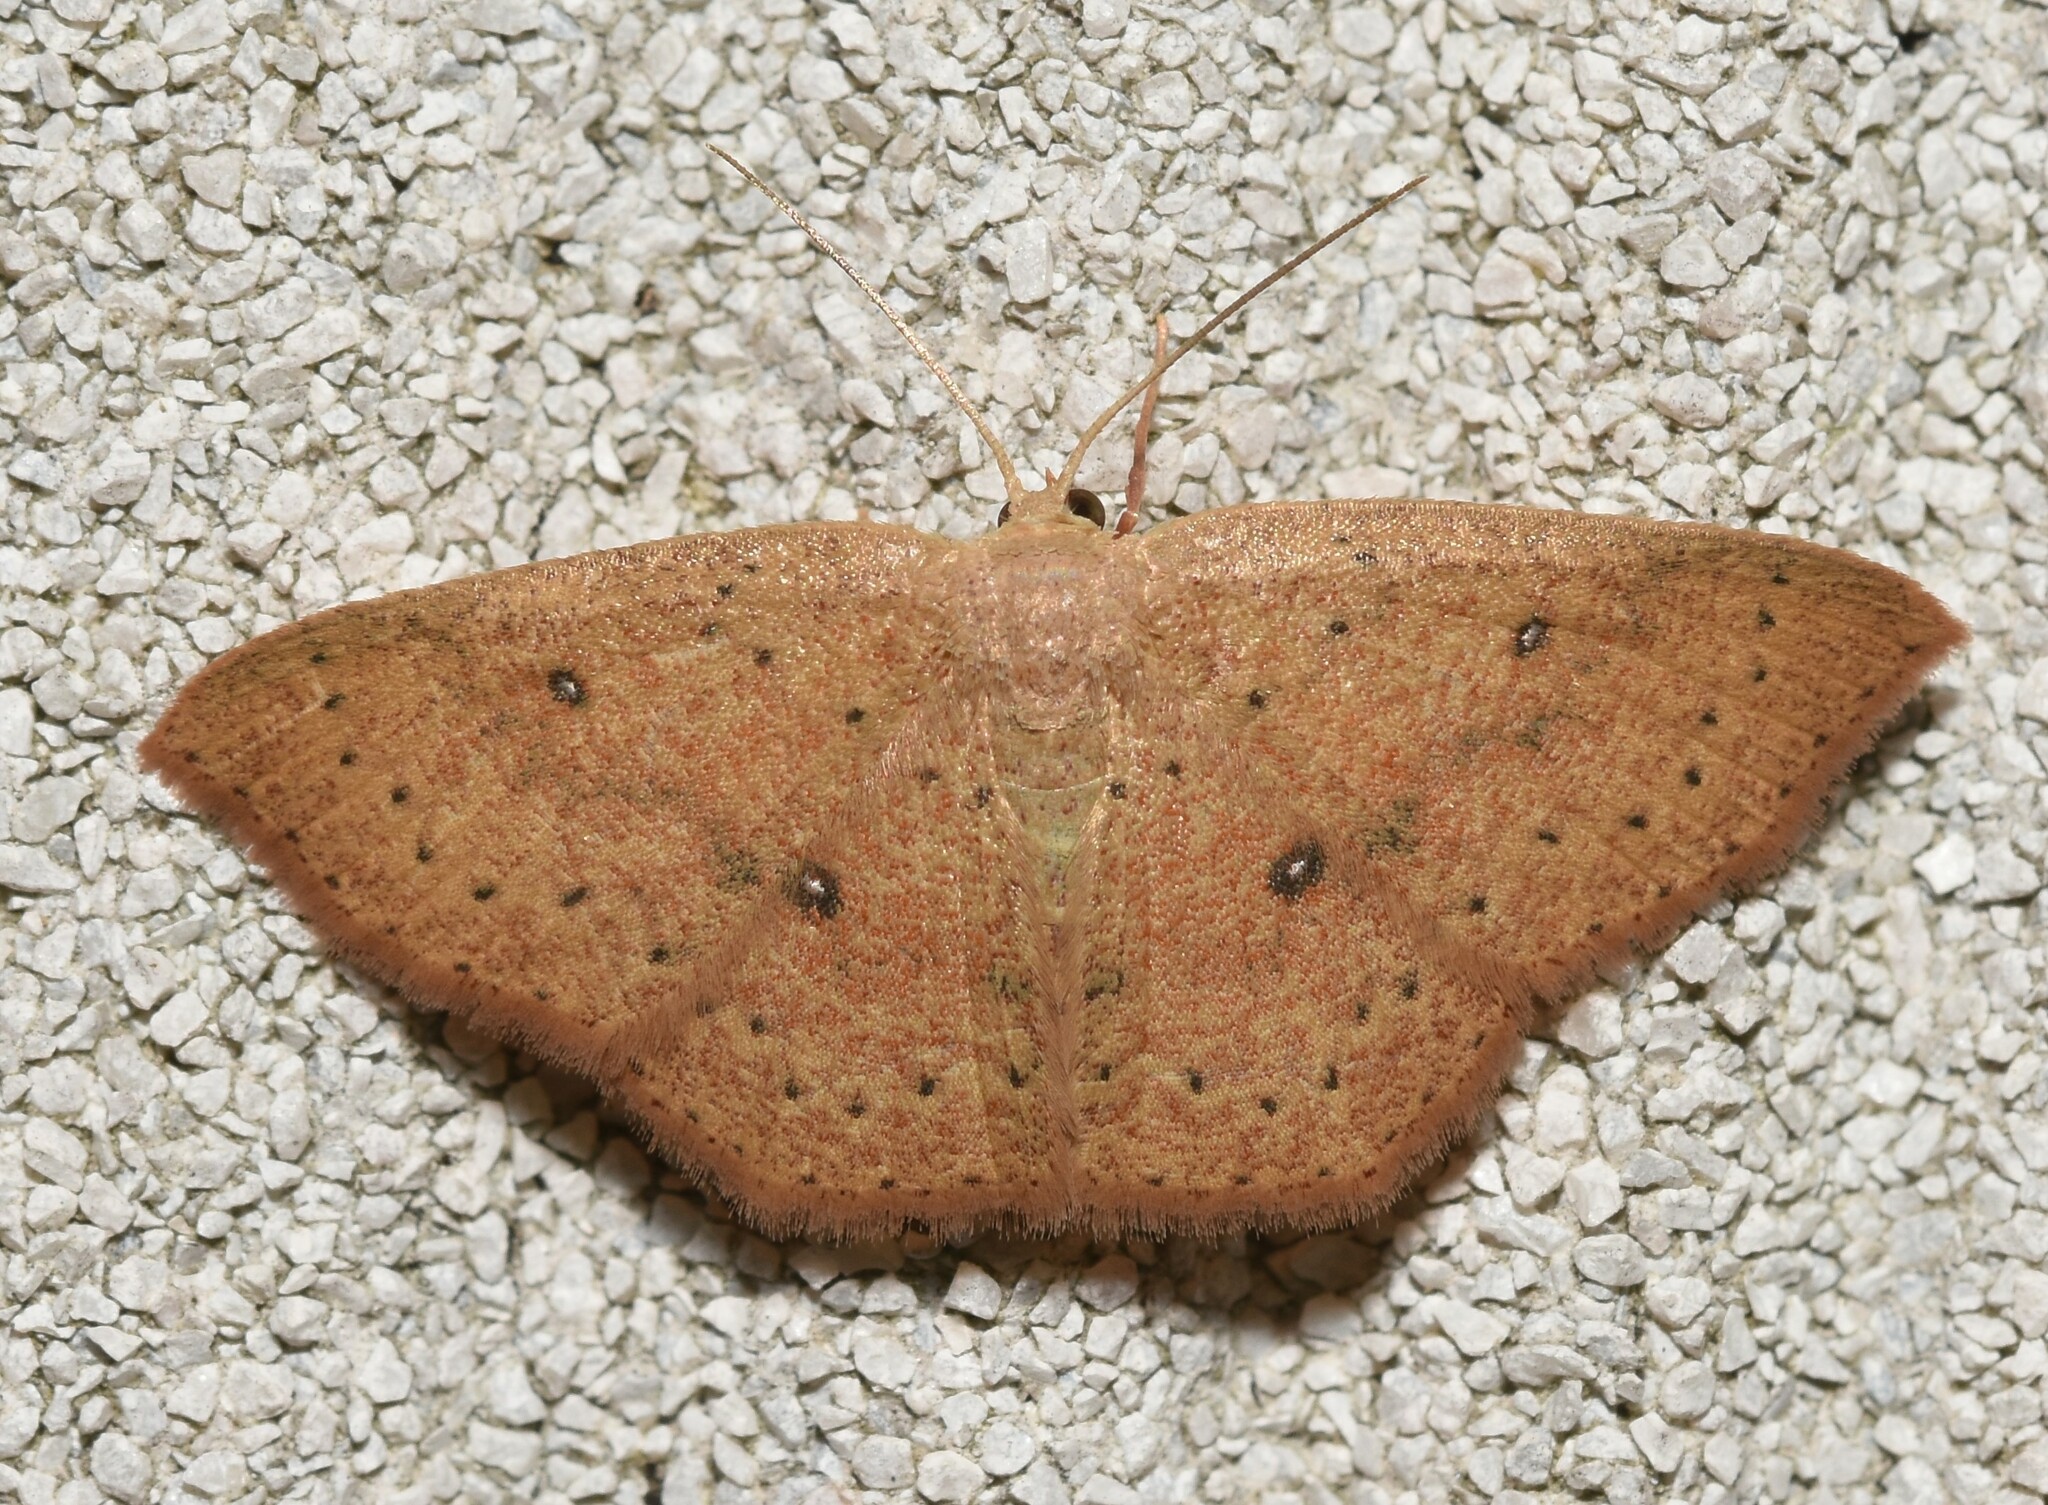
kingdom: Animalia
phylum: Arthropoda
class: Insecta
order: Lepidoptera
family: Geometridae
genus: Cyclophora
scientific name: Cyclophora packardi
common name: Packard's wave
